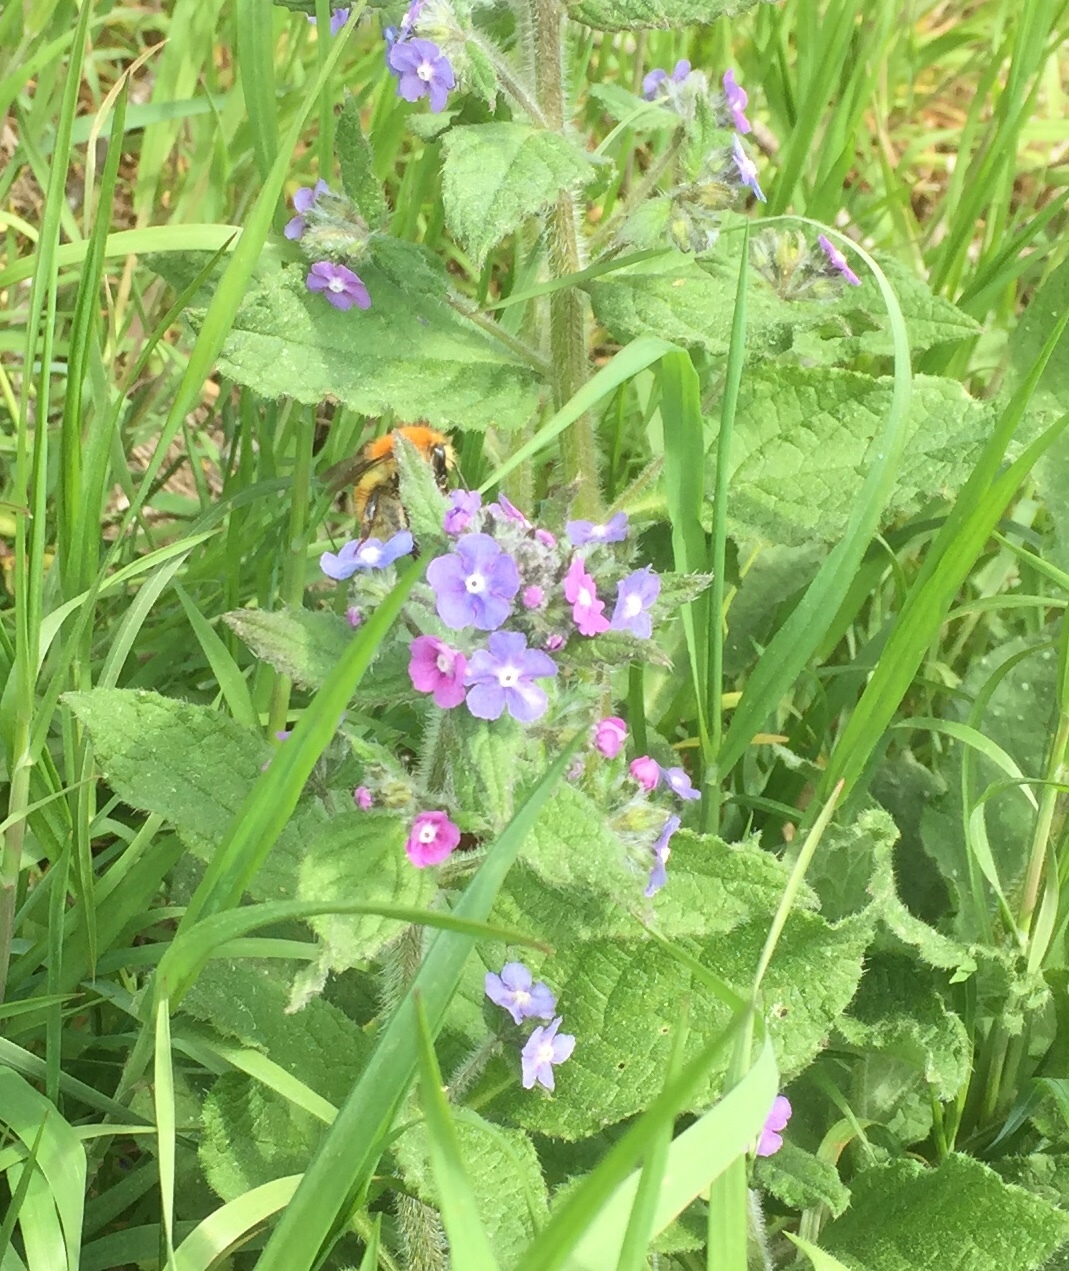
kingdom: Plantae
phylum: Tracheophyta
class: Magnoliopsida
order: Boraginales
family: Boraginaceae
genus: Pentaglottis
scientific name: Pentaglottis sempervirens
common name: Green alkanet
